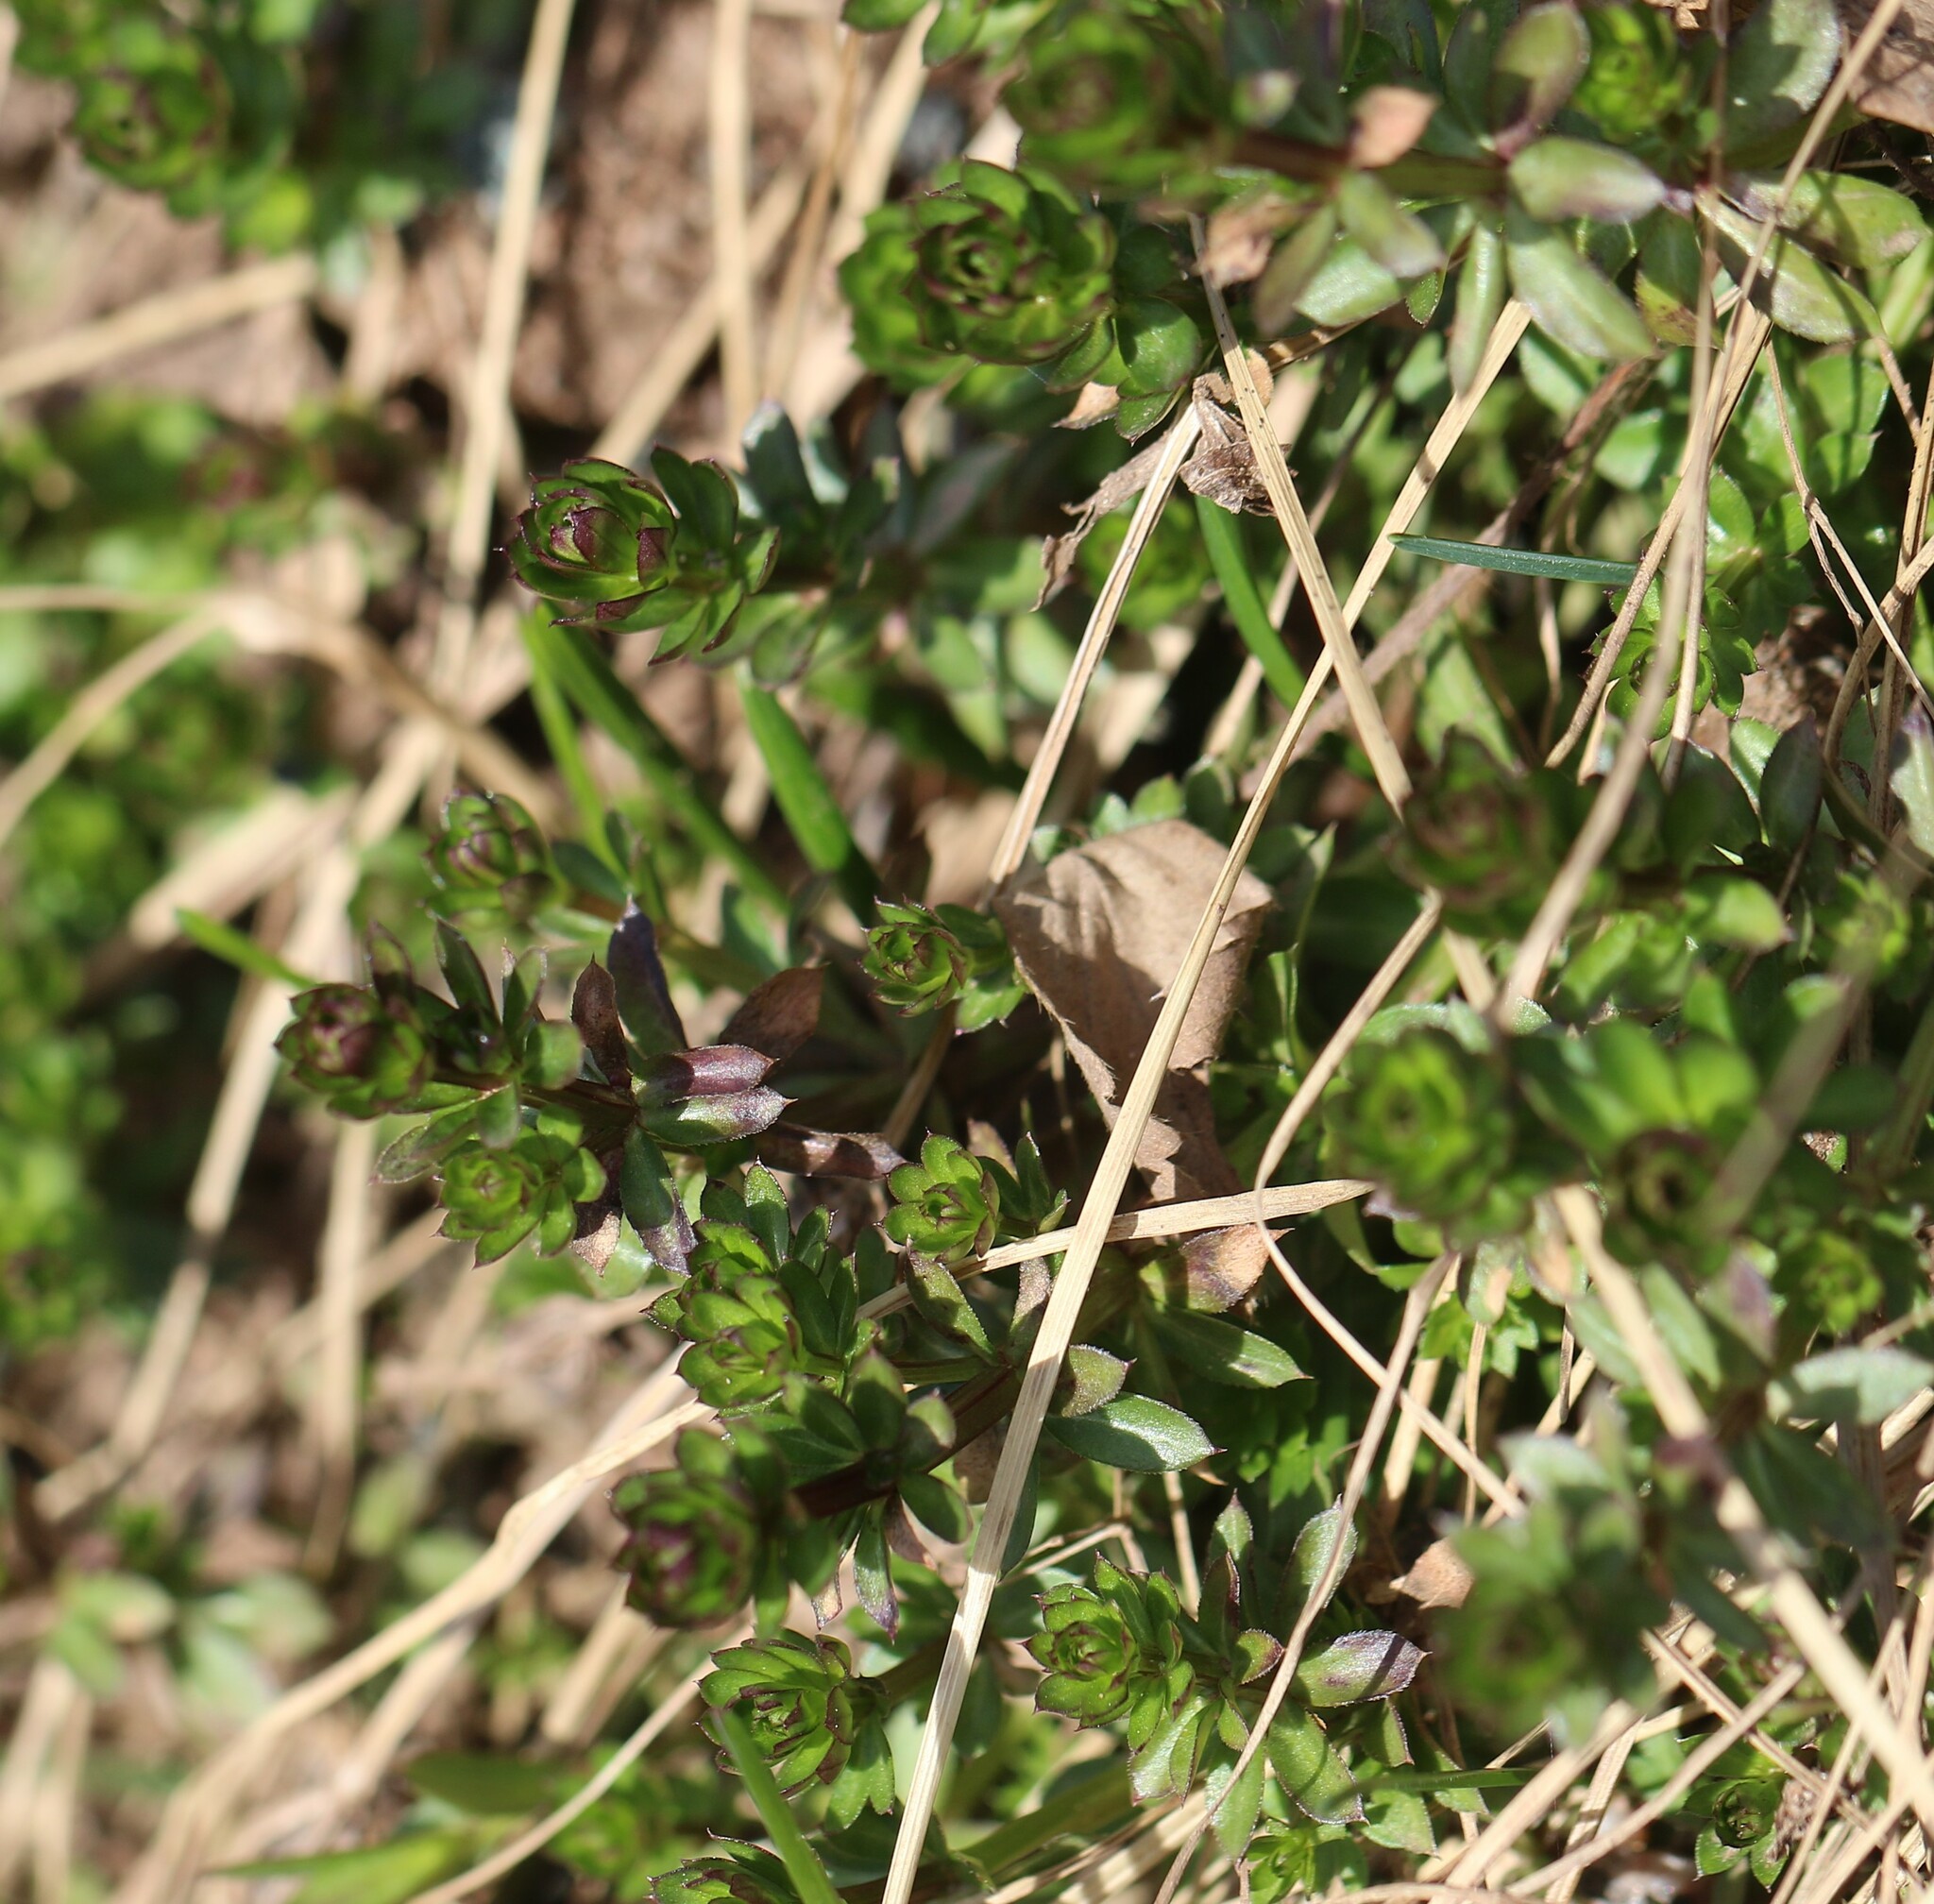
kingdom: Plantae
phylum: Tracheophyta
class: Magnoliopsida
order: Gentianales
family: Rubiaceae
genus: Galium
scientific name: Galium mollugo
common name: Hedge bedstraw
